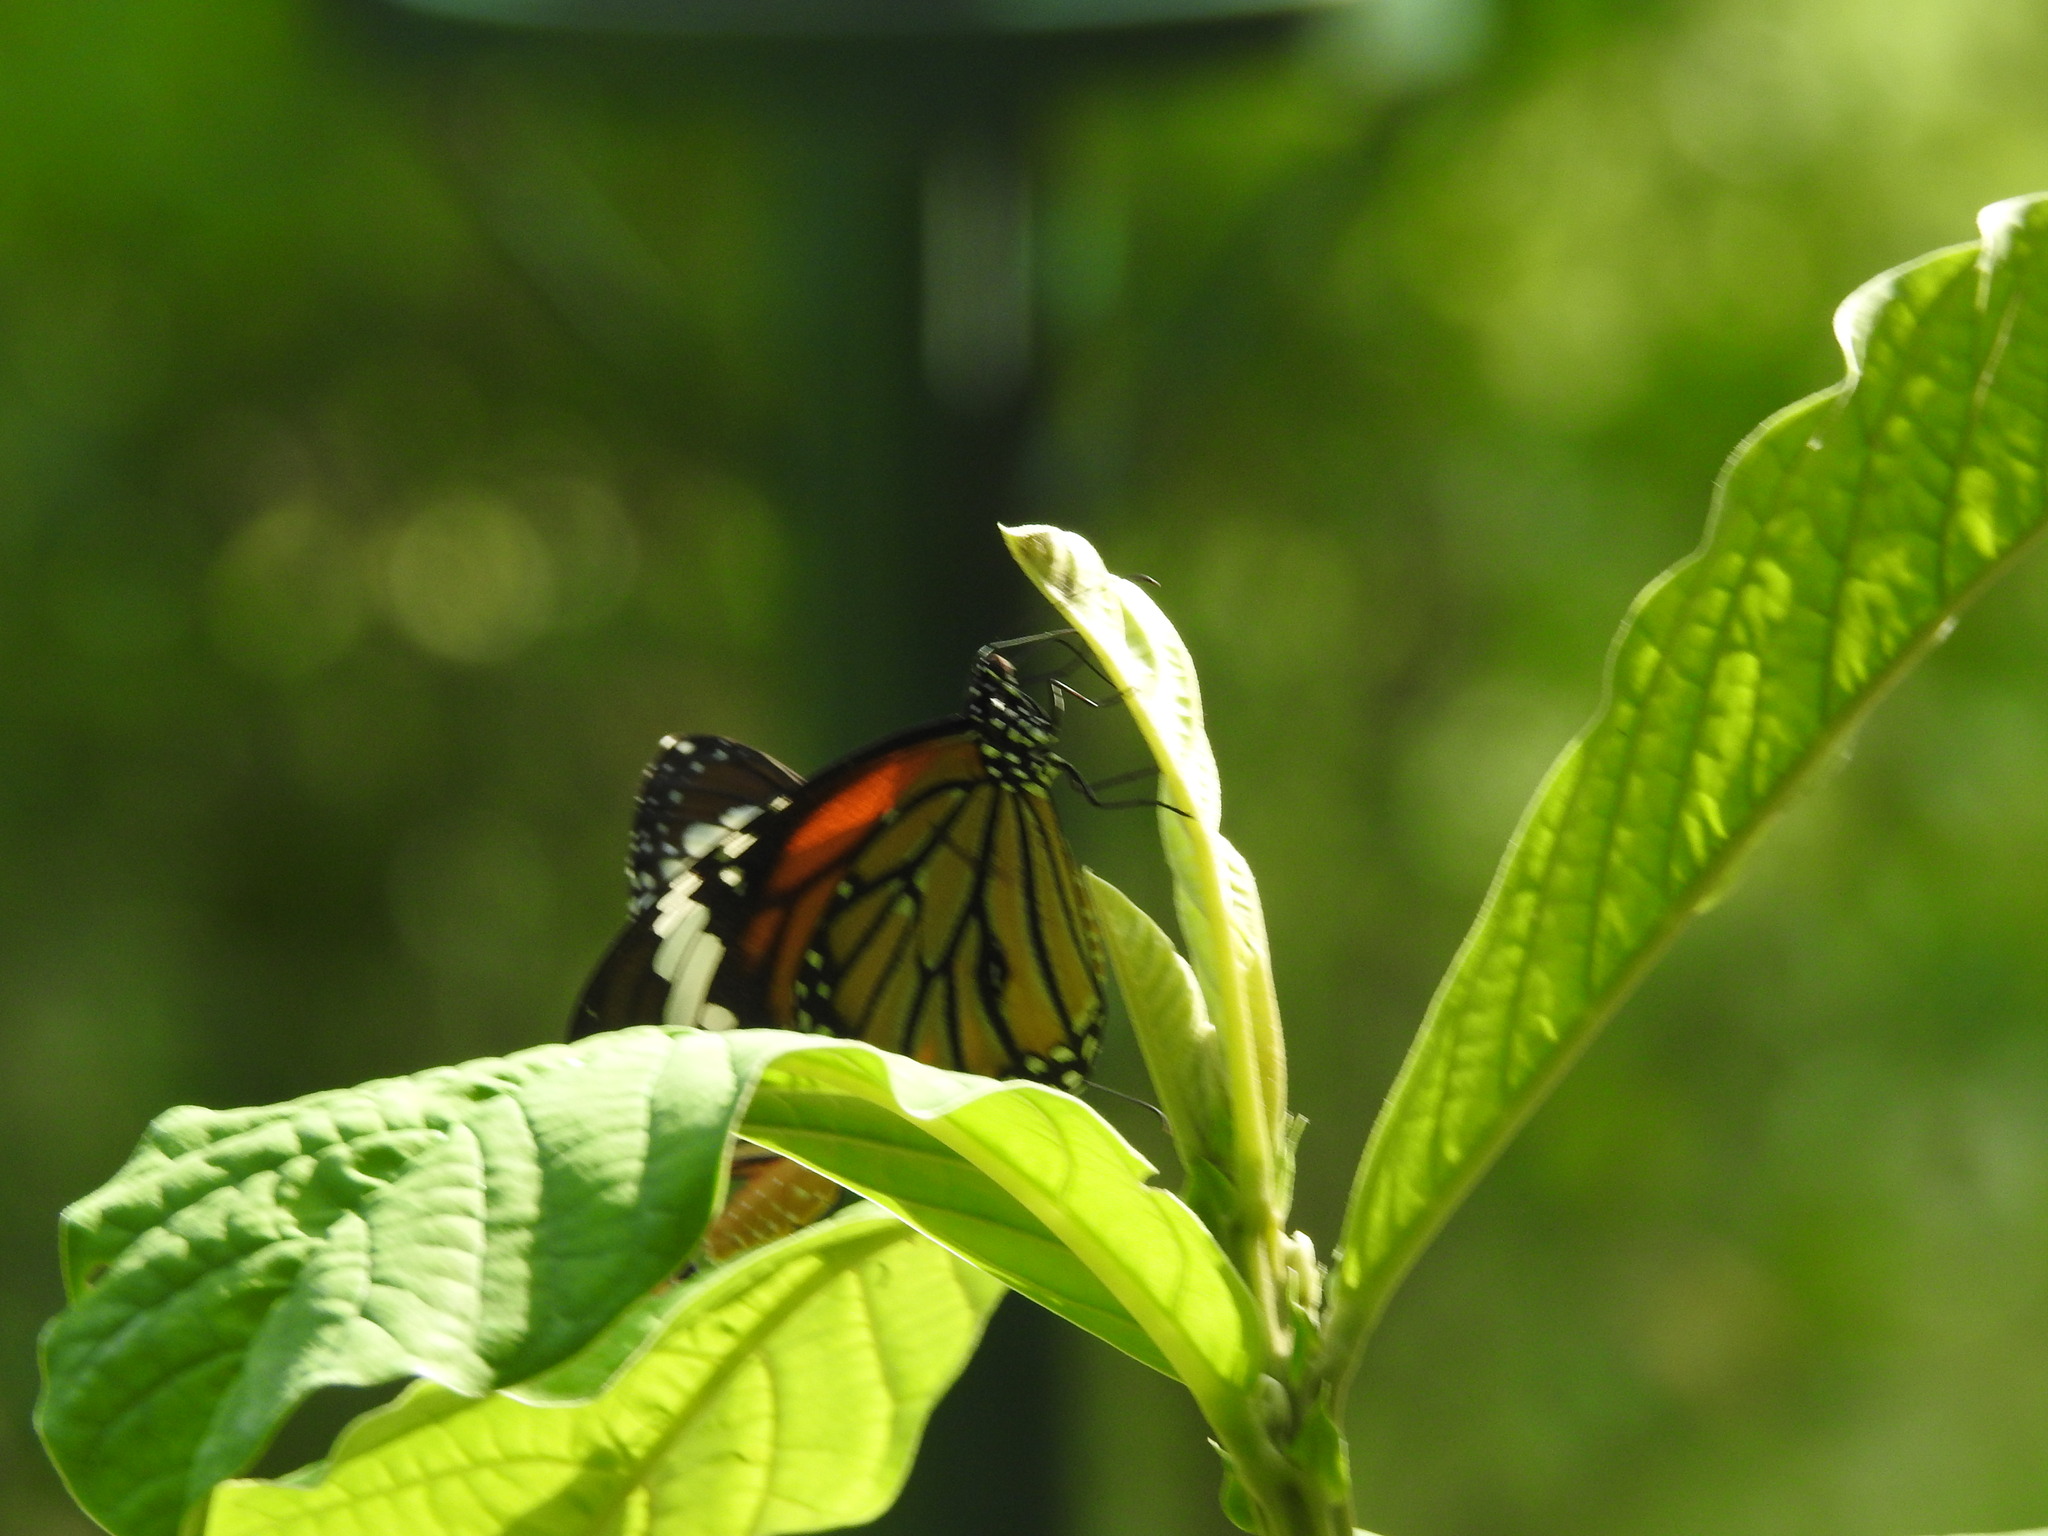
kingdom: Animalia
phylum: Arthropoda
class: Insecta
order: Lepidoptera
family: Nymphalidae
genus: Danaus
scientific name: Danaus genutia
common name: Common tiger butterfly
